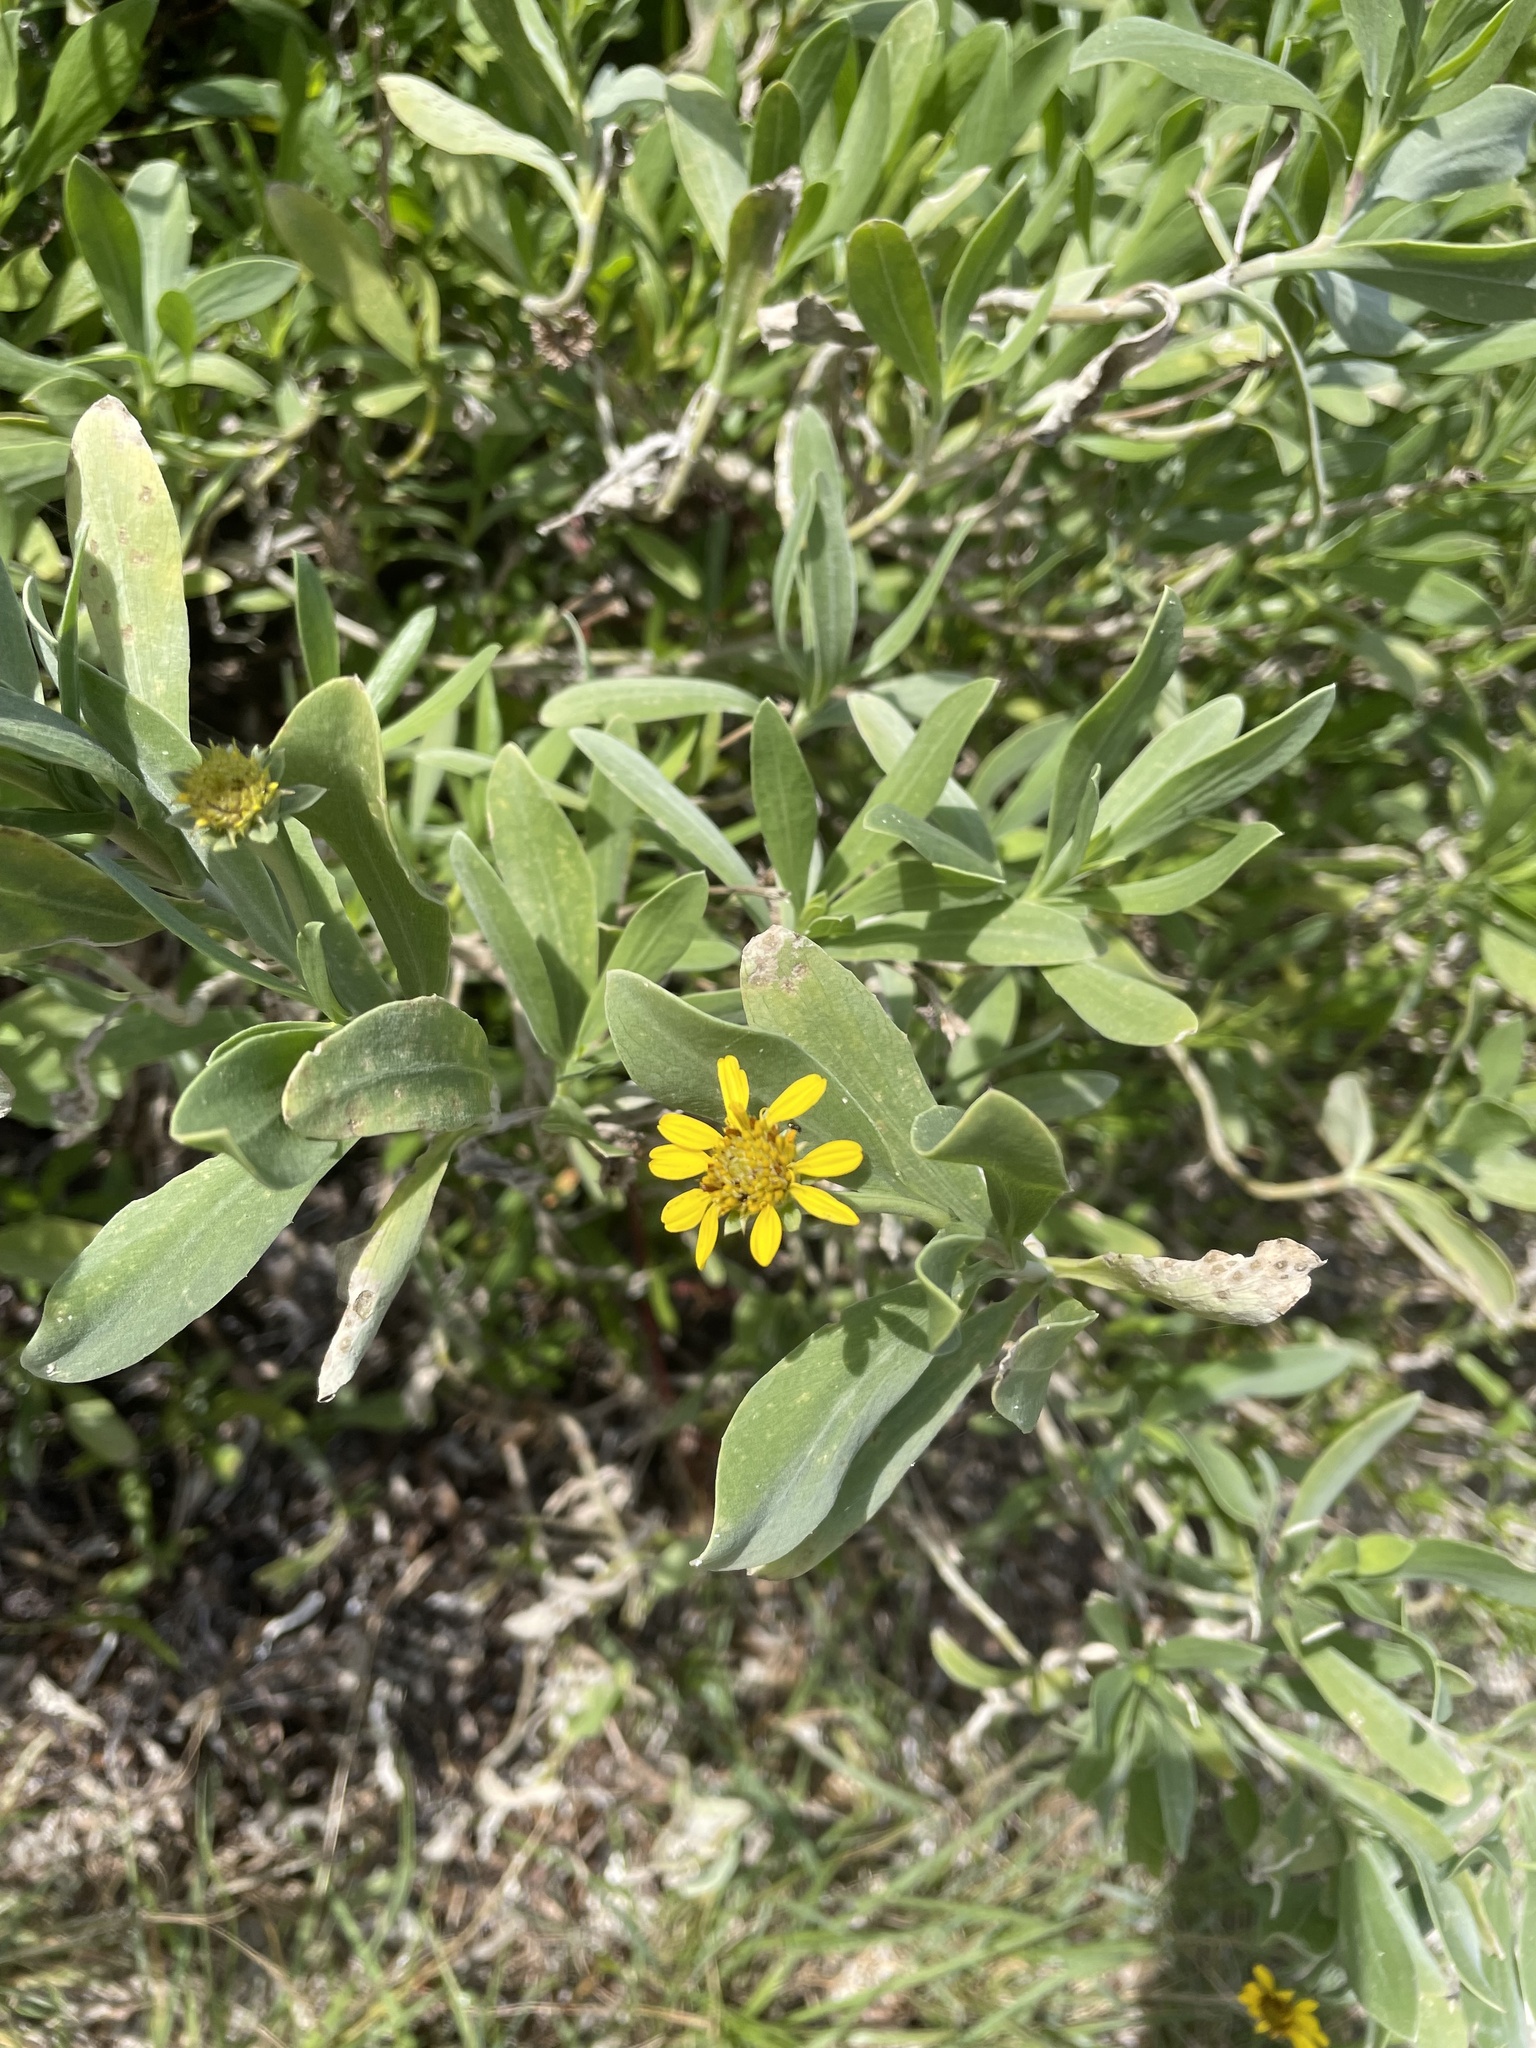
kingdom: Plantae
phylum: Tracheophyta
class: Magnoliopsida
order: Asterales
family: Asteraceae
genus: Borrichia
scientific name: Borrichia frutescens
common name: Sea oxeye
